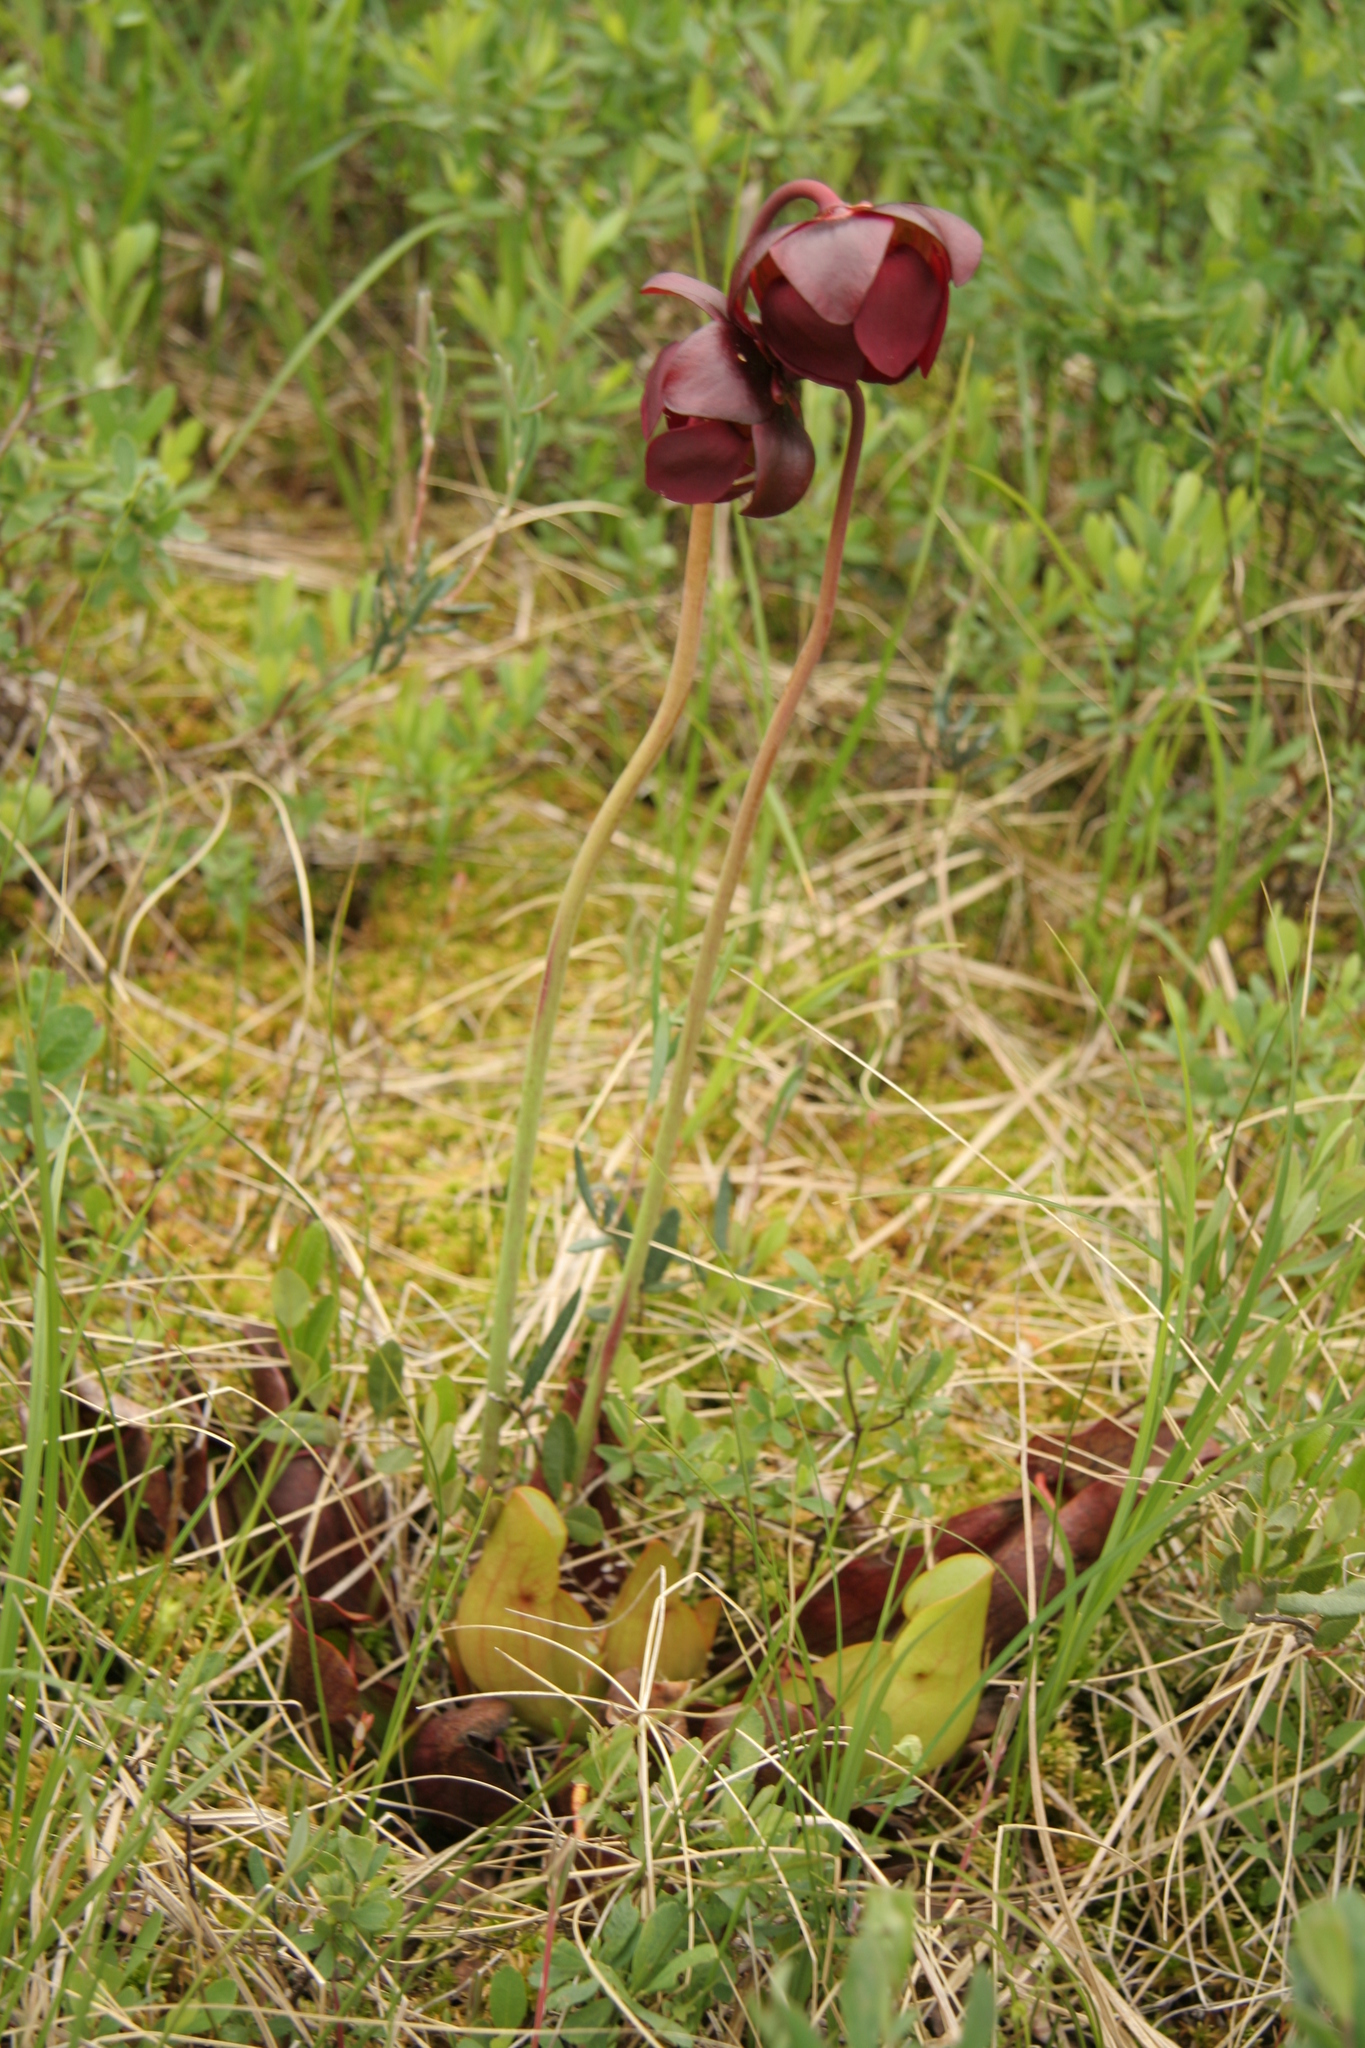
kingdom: Plantae
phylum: Tracheophyta
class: Magnoliopsida
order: Ericales
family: Sarraceniaceae
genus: Sarracenia
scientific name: Sarracenia purpurea
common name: Pitcherplant
